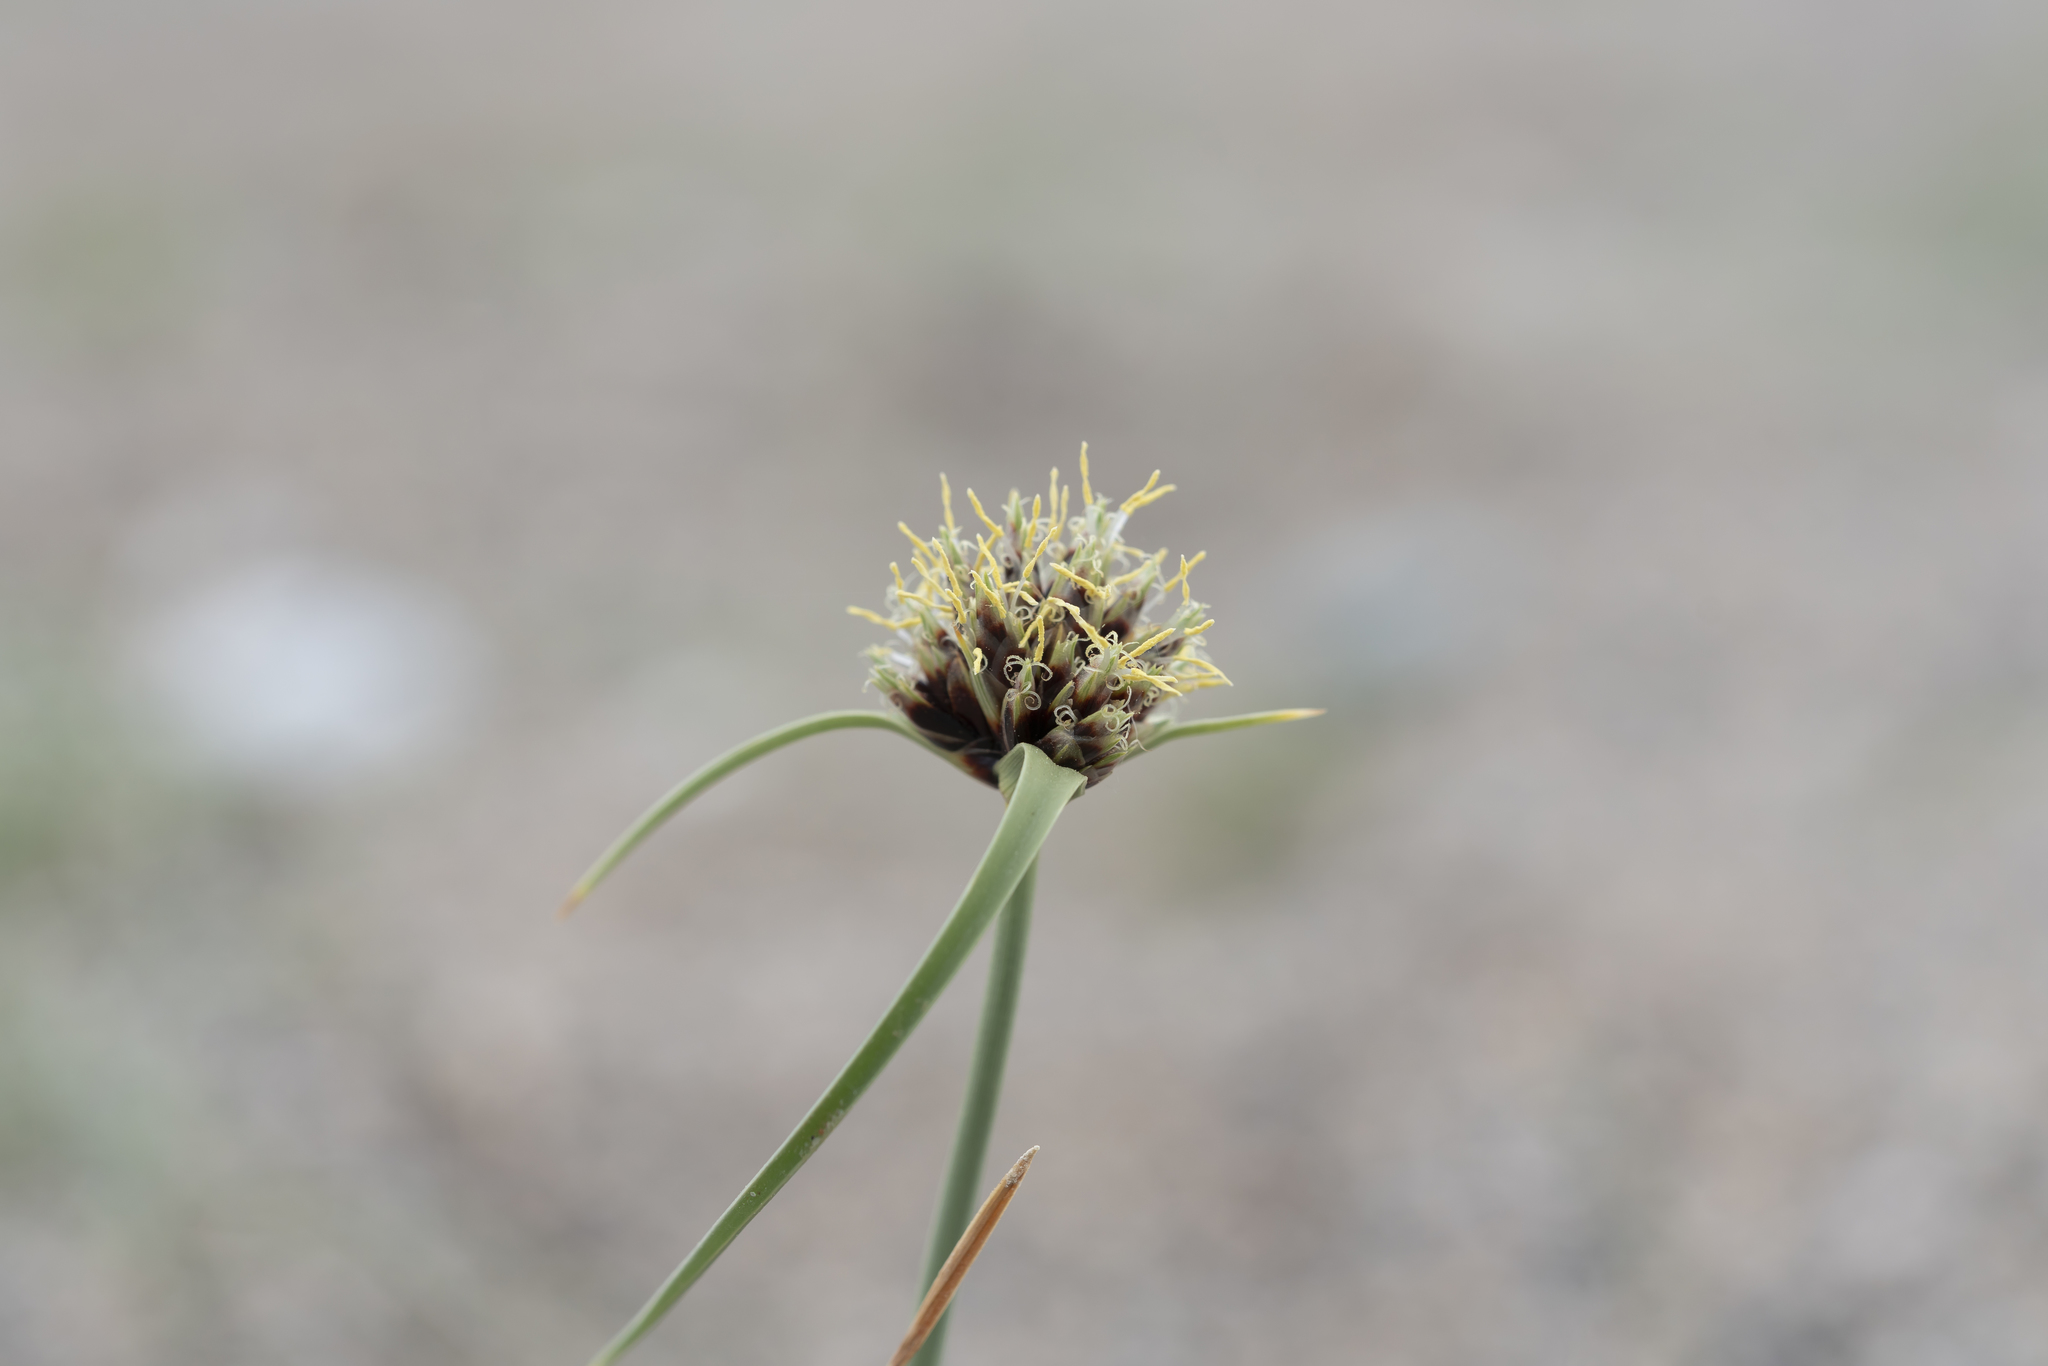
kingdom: Plantae
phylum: Tracheophyta
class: Liliopsida
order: Poales
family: Cyperaceae
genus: Cyperus
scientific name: Cyperus capitatus
